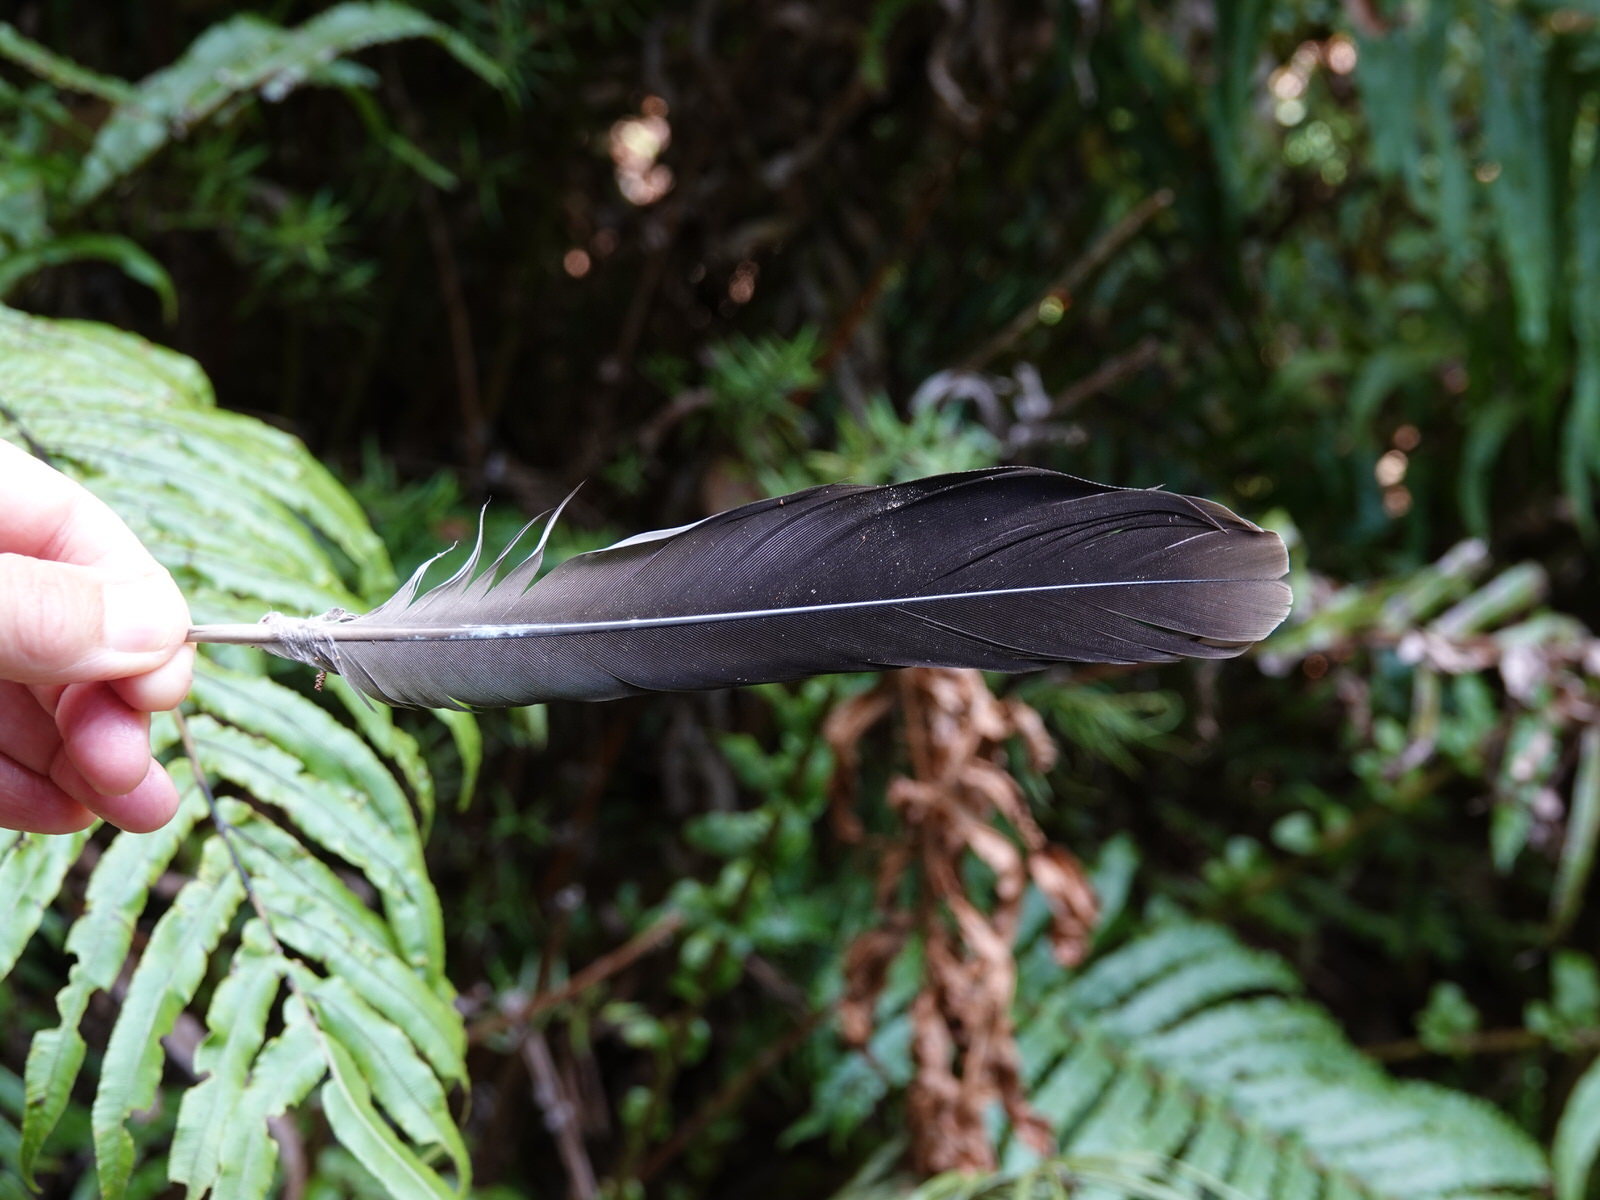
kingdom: Animalia
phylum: Chordata
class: Aves
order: Columbiformes
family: Columbidae
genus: Hemiphaga
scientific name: Hemiphaga novaeseelandiae
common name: New zealand pigeon
